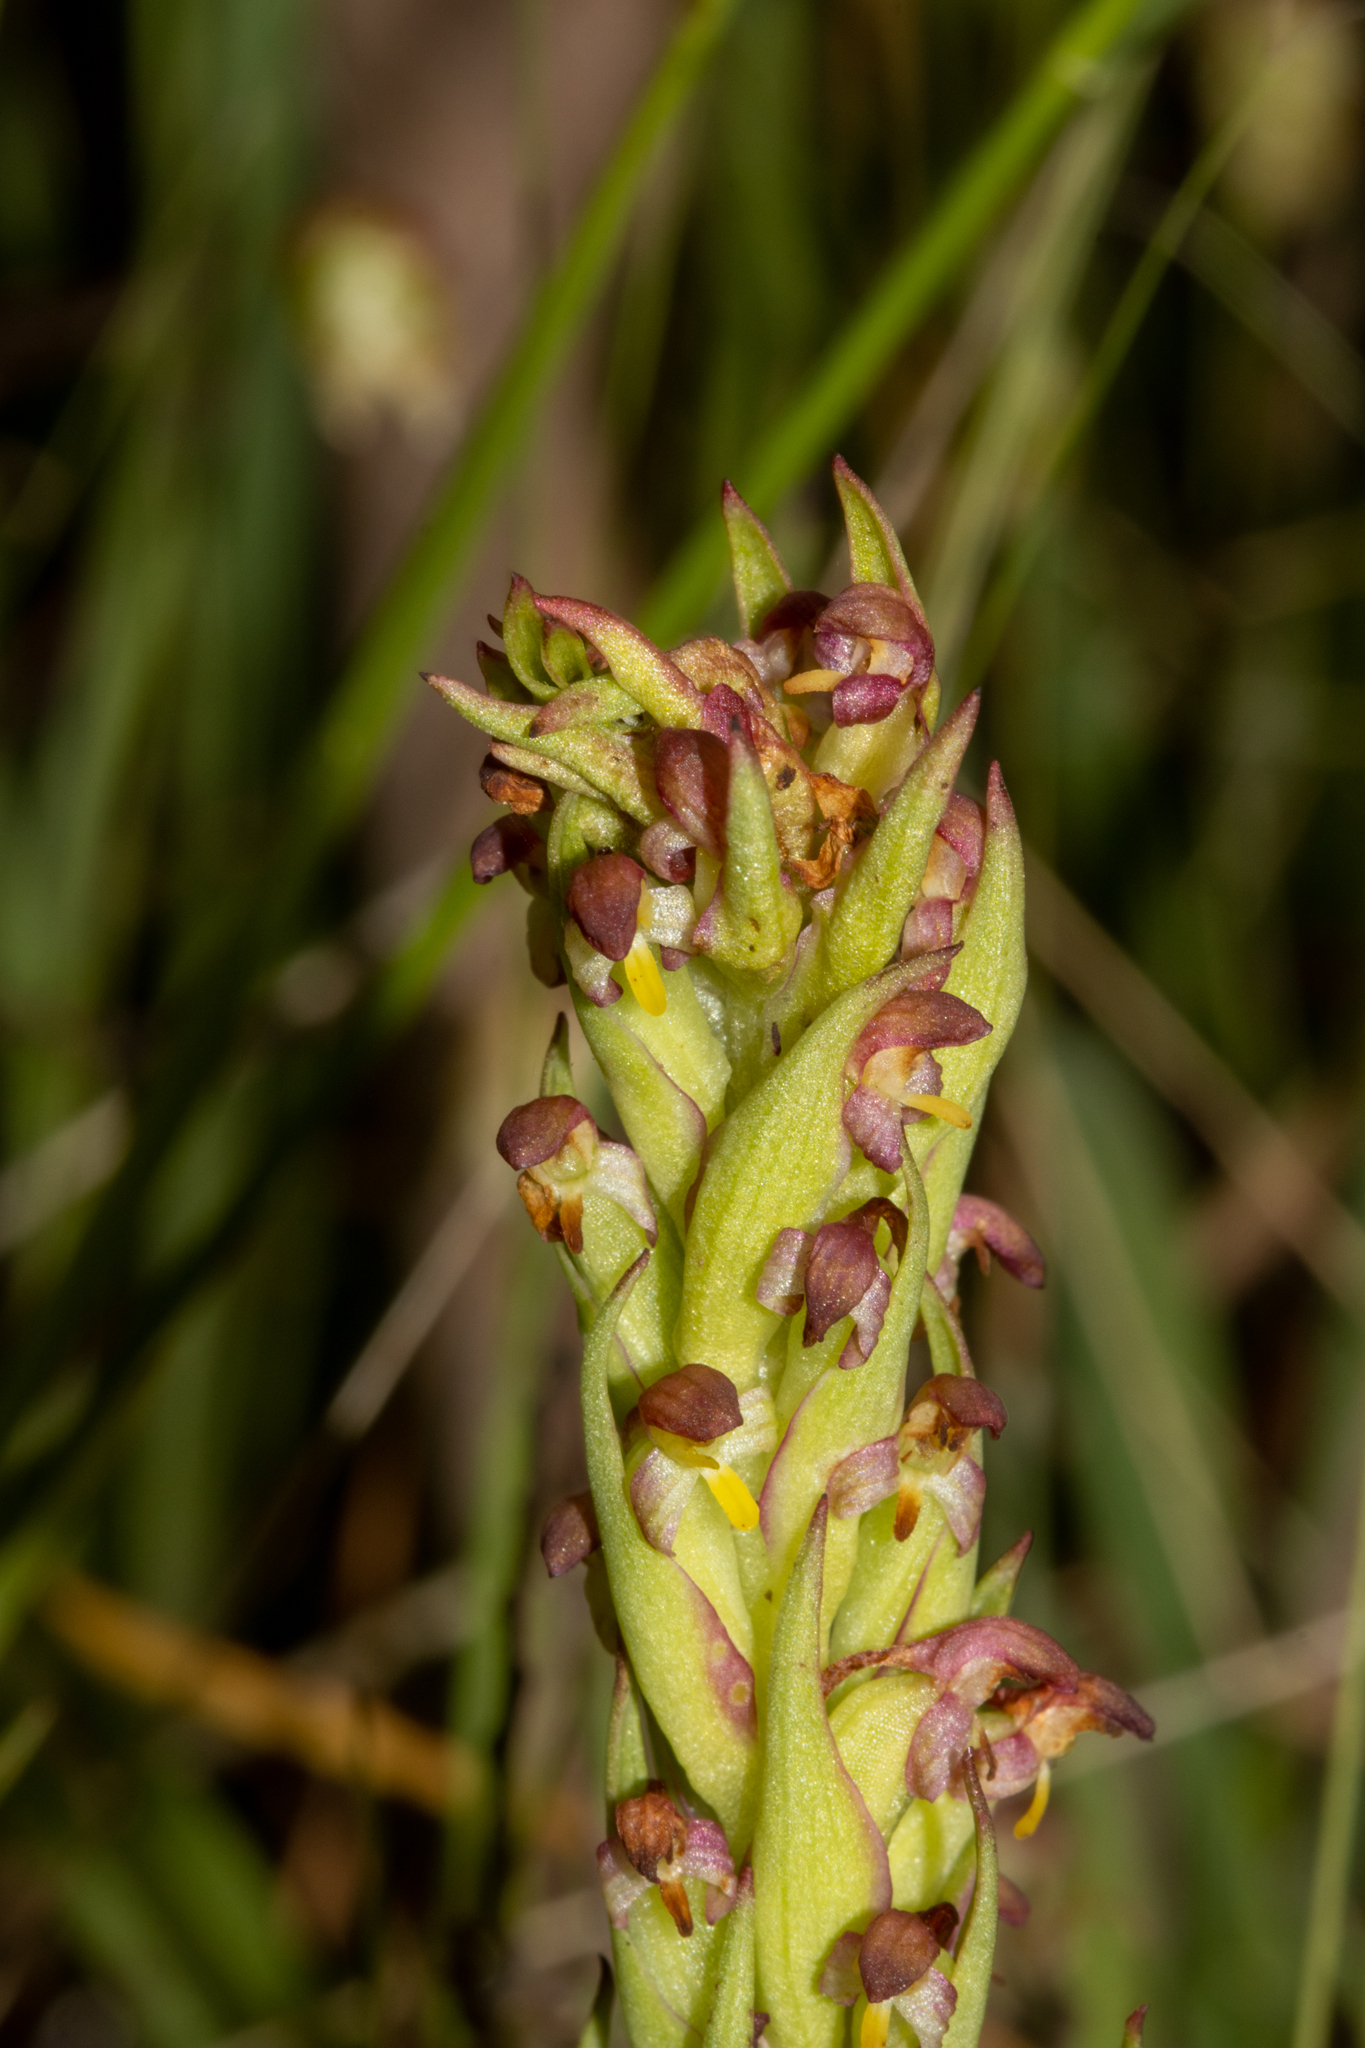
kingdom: Plantae
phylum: Tracheophyta
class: Liliopsida
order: Asparagales
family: Orchidaceae
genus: Disa
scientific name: Disa bracteata
